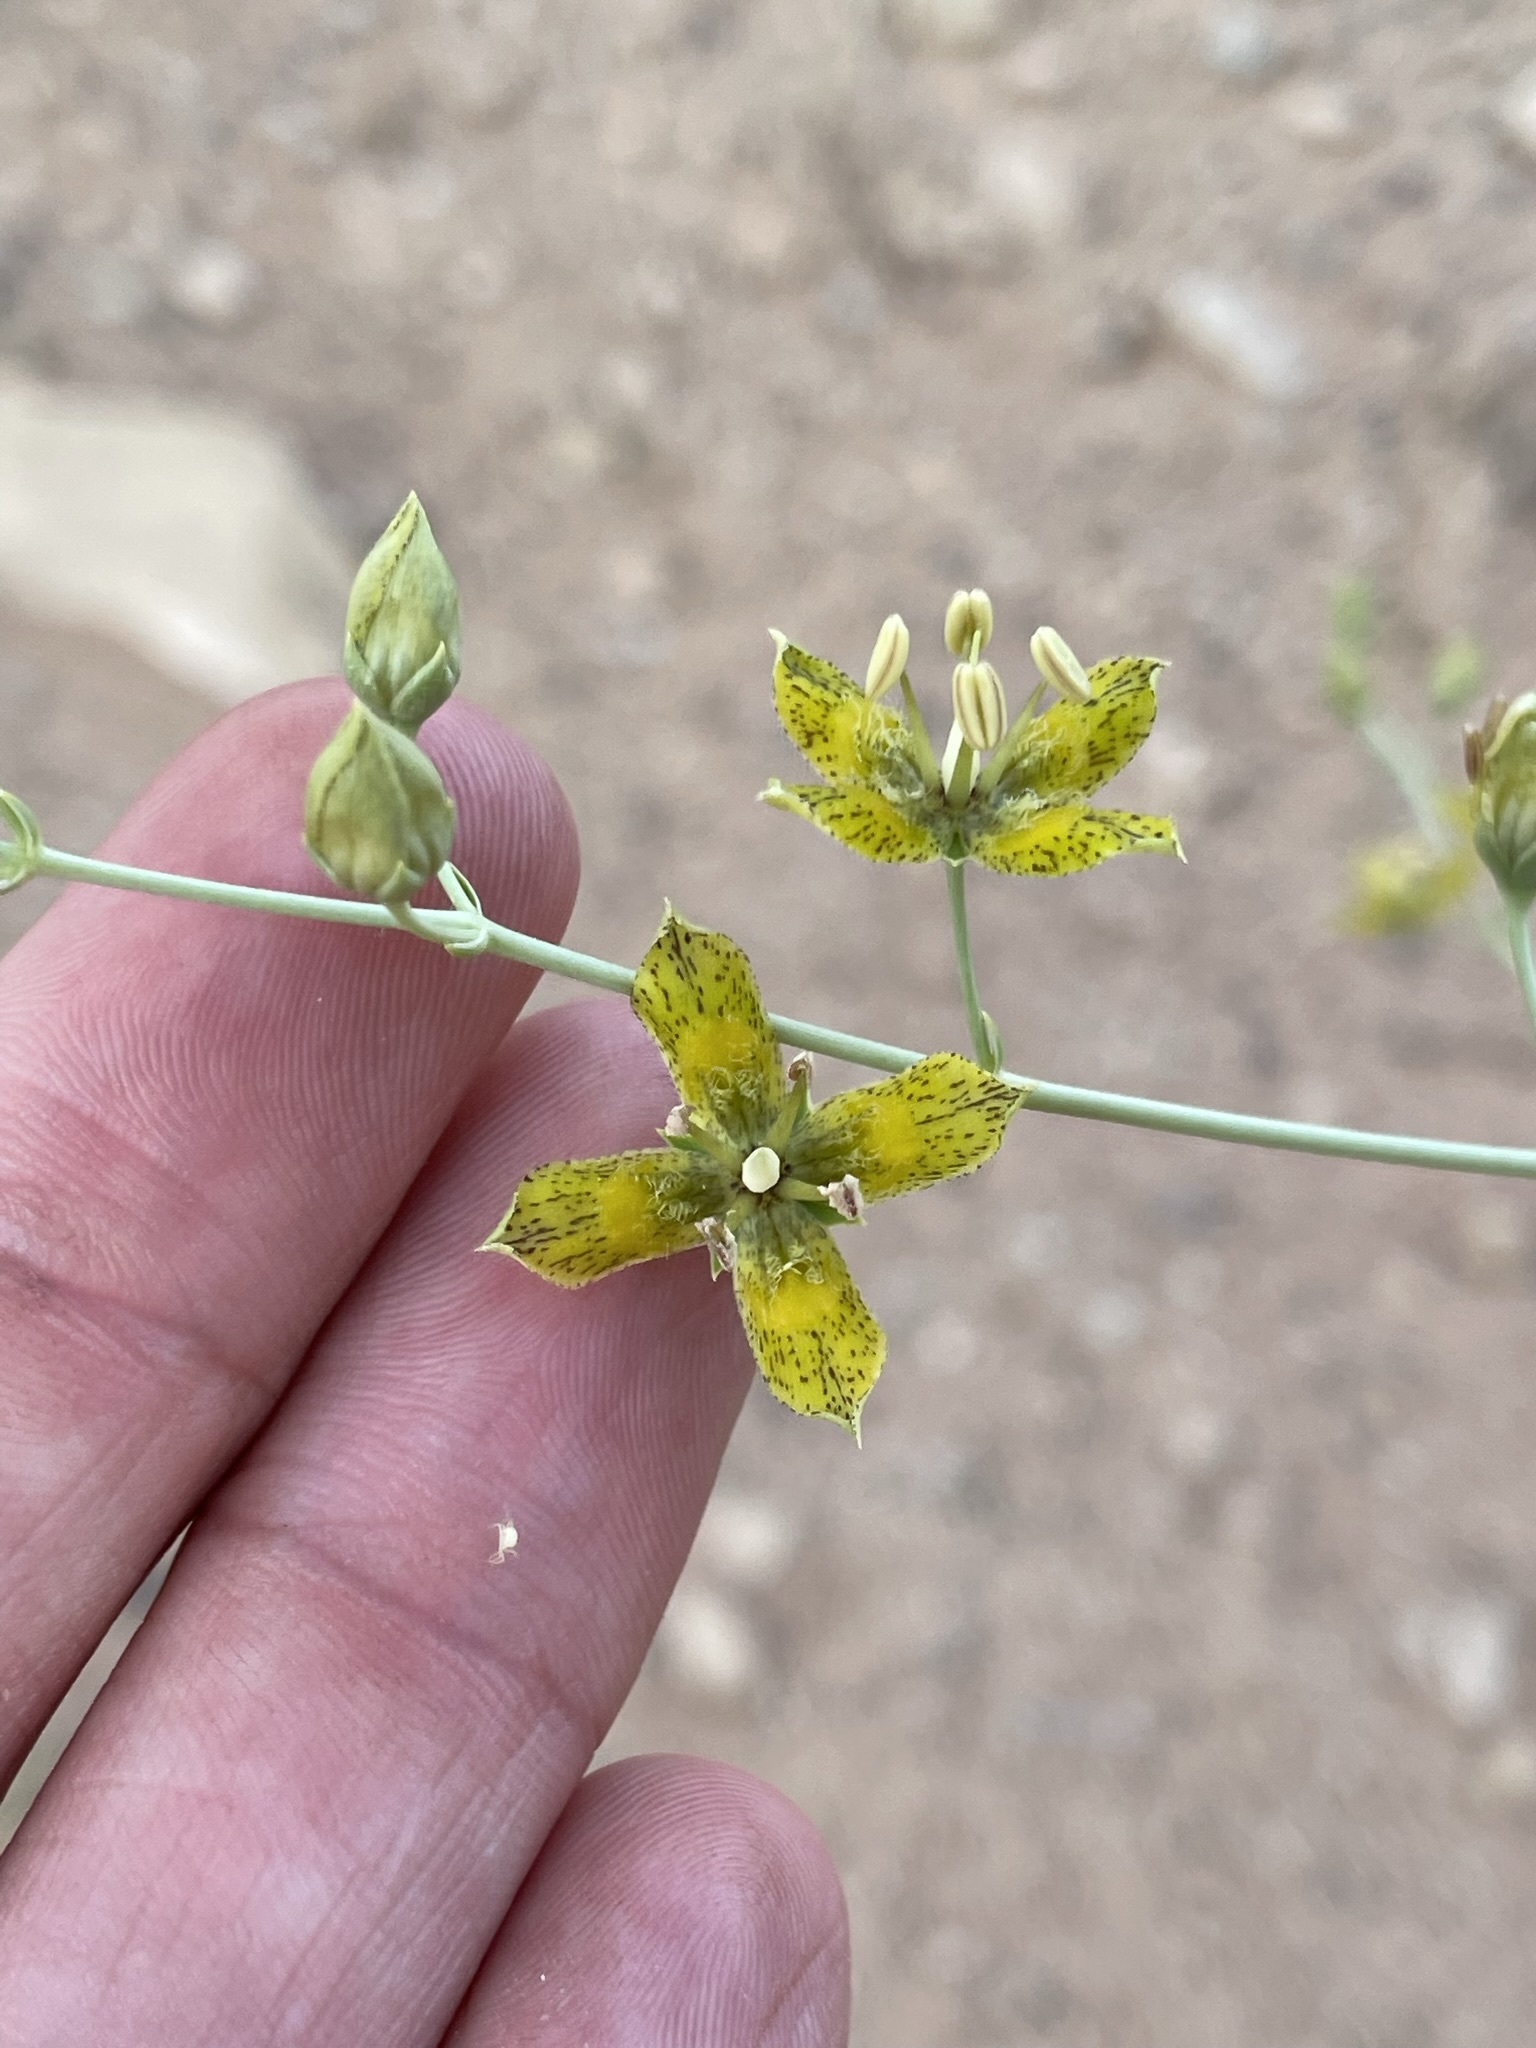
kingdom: Plantae
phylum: Tracheophyta
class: Magnoliopsida
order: Gentianales
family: Gentianaceae
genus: Frasera
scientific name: Frasera paniculata
